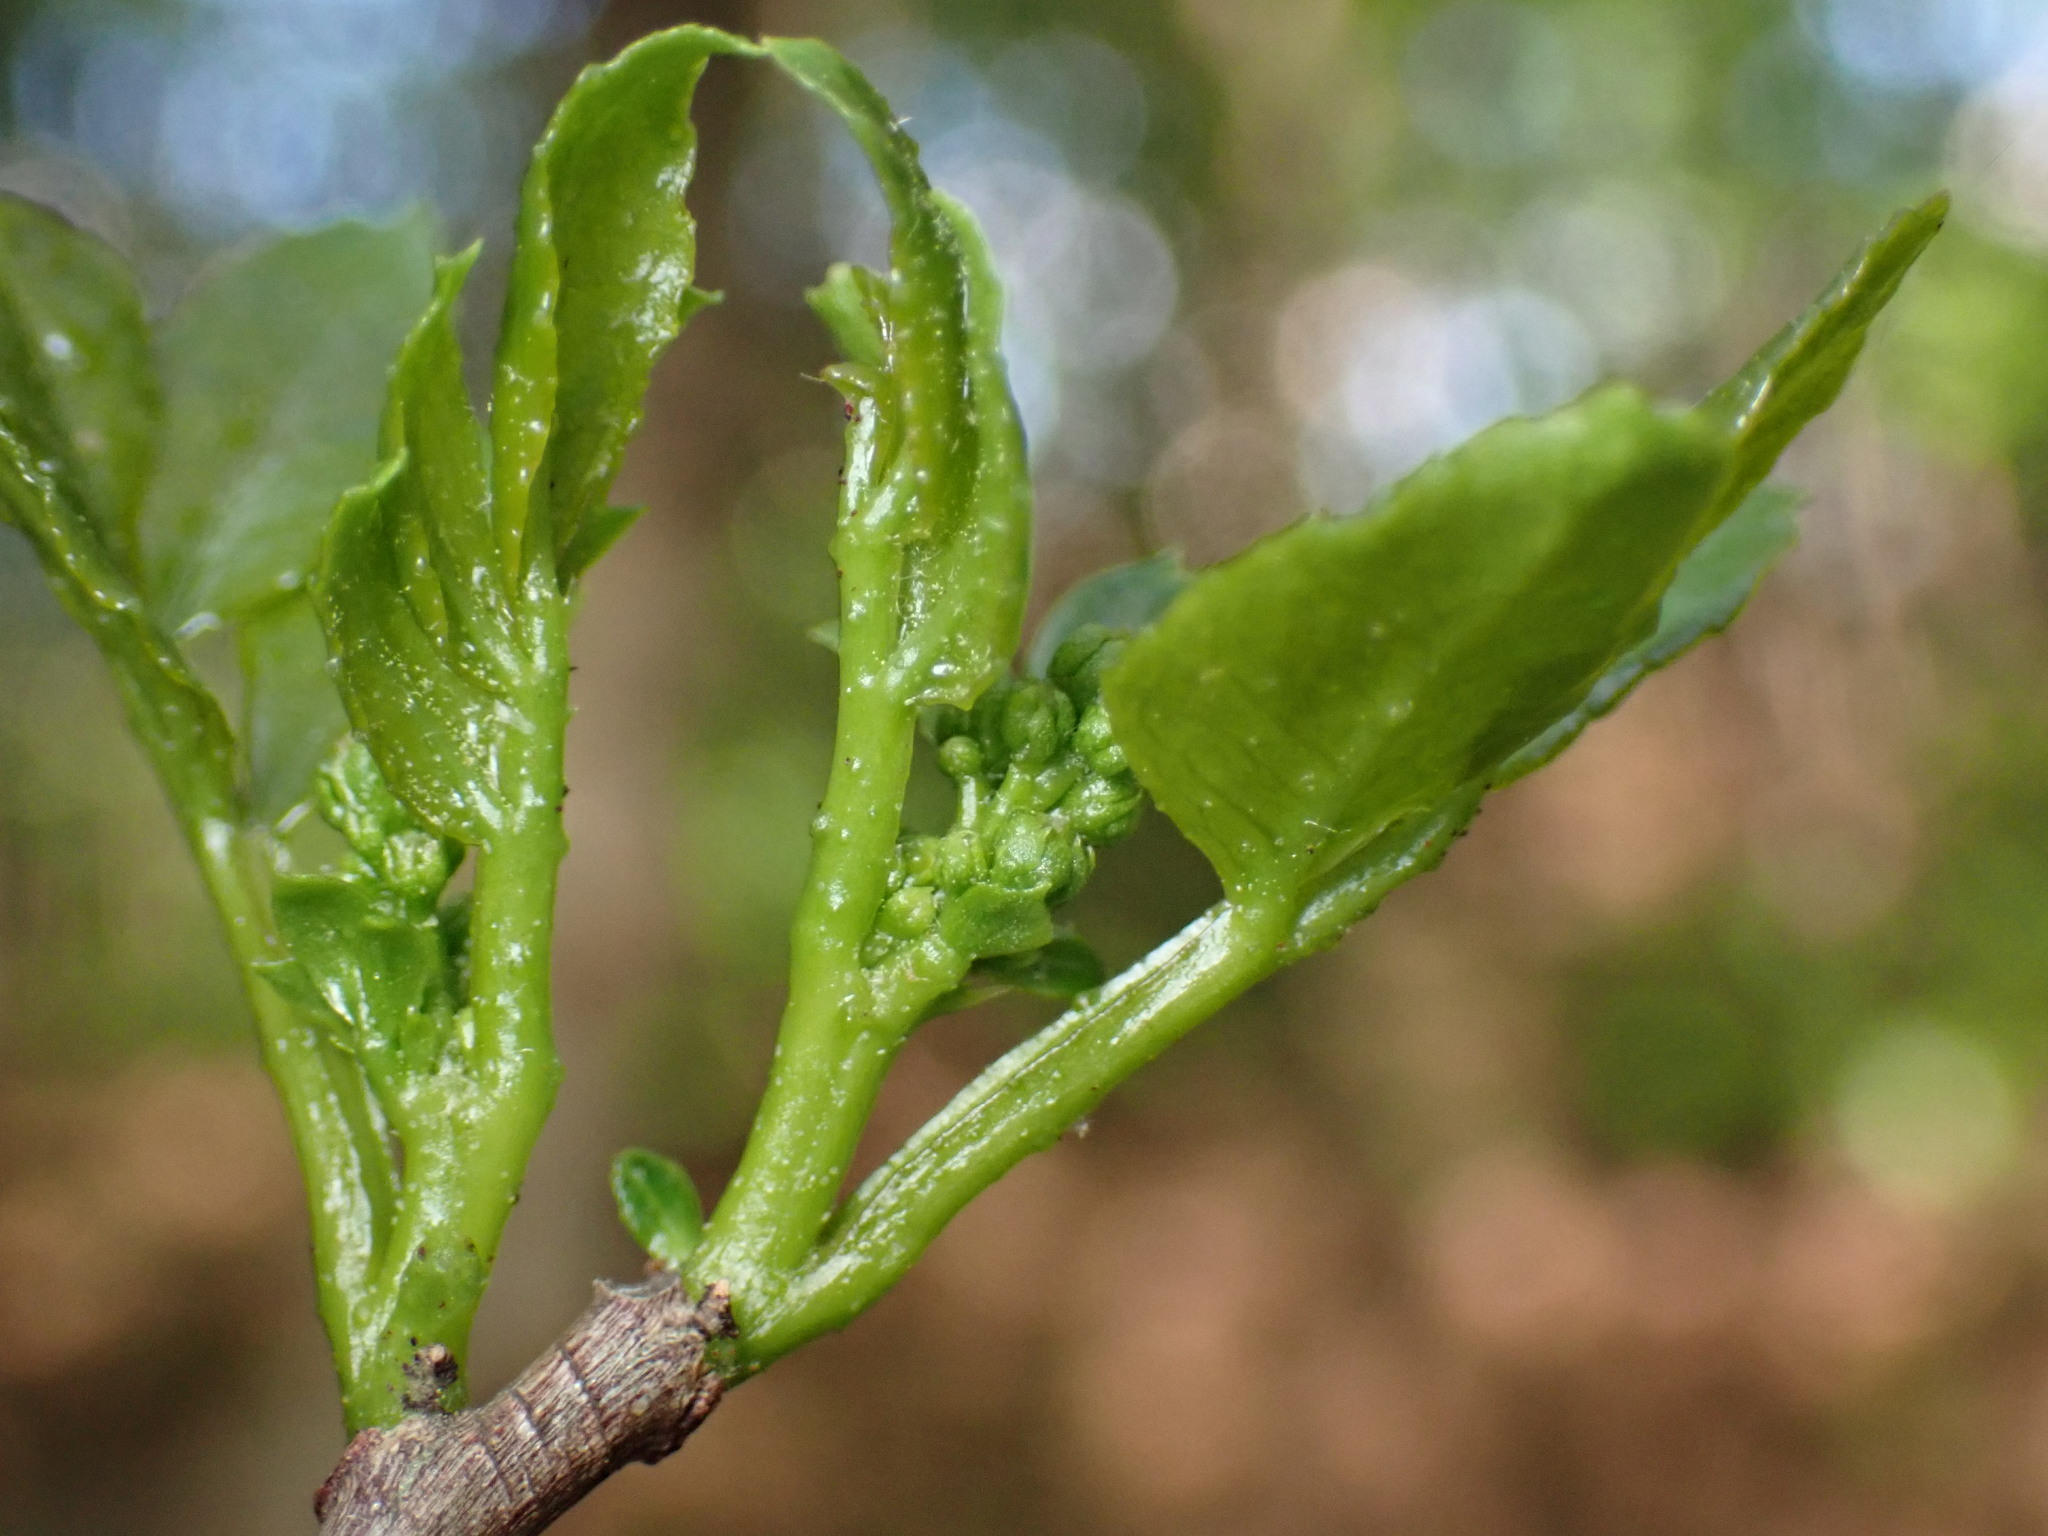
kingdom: Plantae
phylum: Tracheophyta
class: Magnoliopsida
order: Sapindales
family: Rutaceae
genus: Zanthoxylum
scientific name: Zanthoxylum simulans
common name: Chinese-pepper
